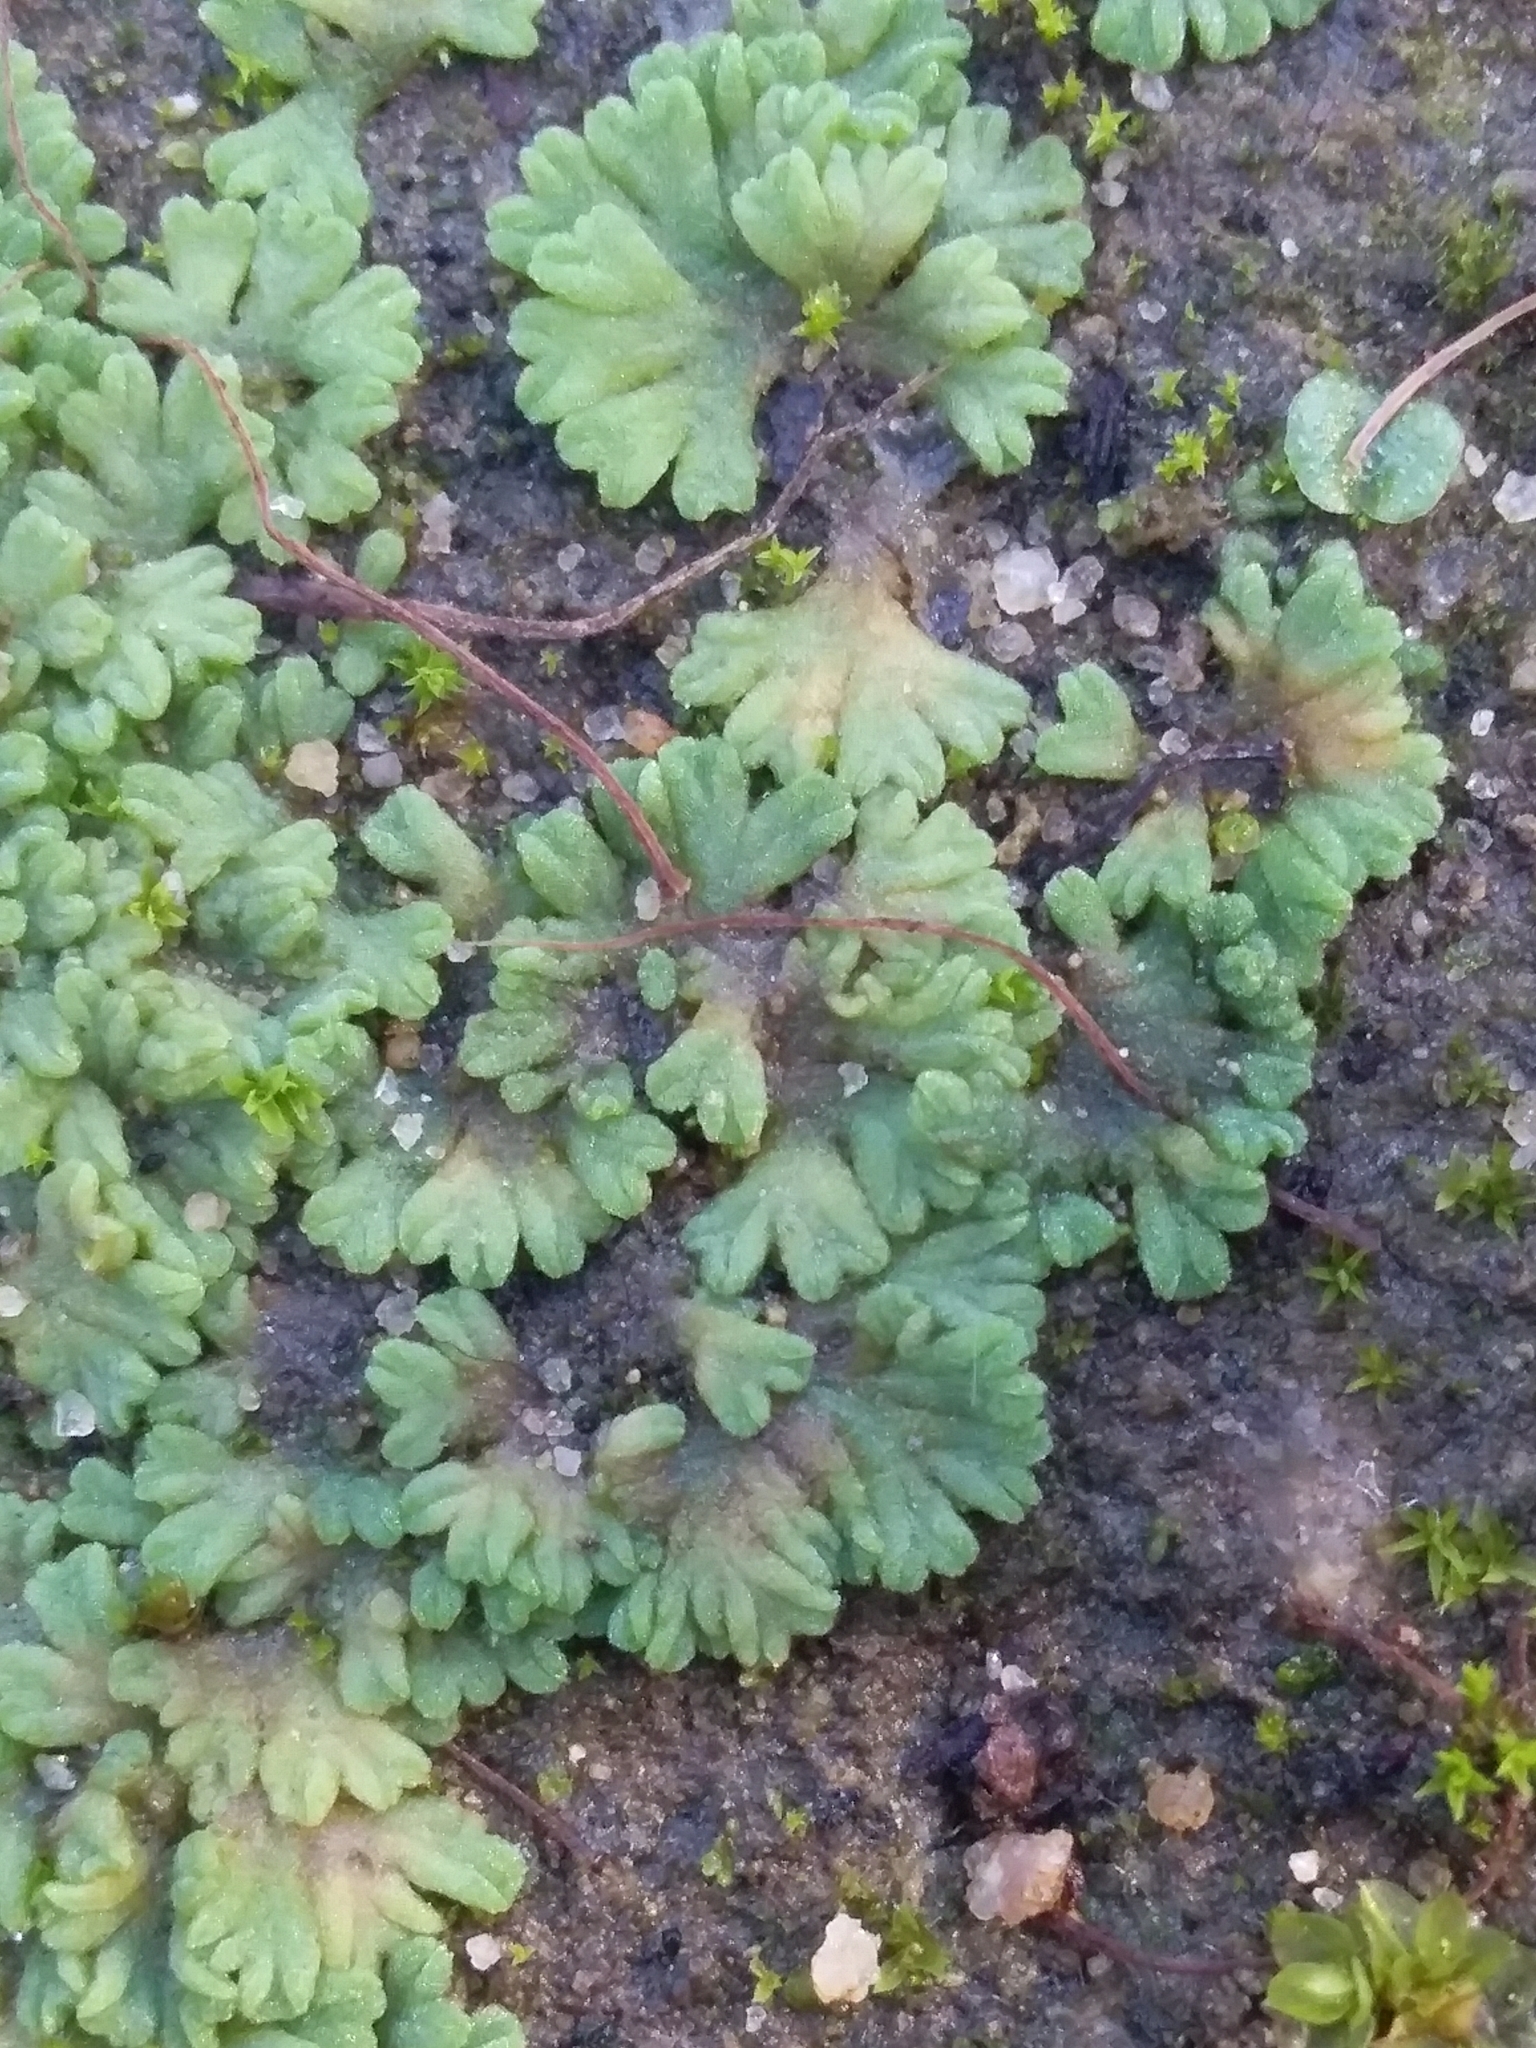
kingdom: Plantae
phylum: Marchantiophyta
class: Marchantiopsida
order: Marchantiales
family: Ricciaceae
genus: Riccia
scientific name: Riccia subbifurca
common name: Least crystalwort
